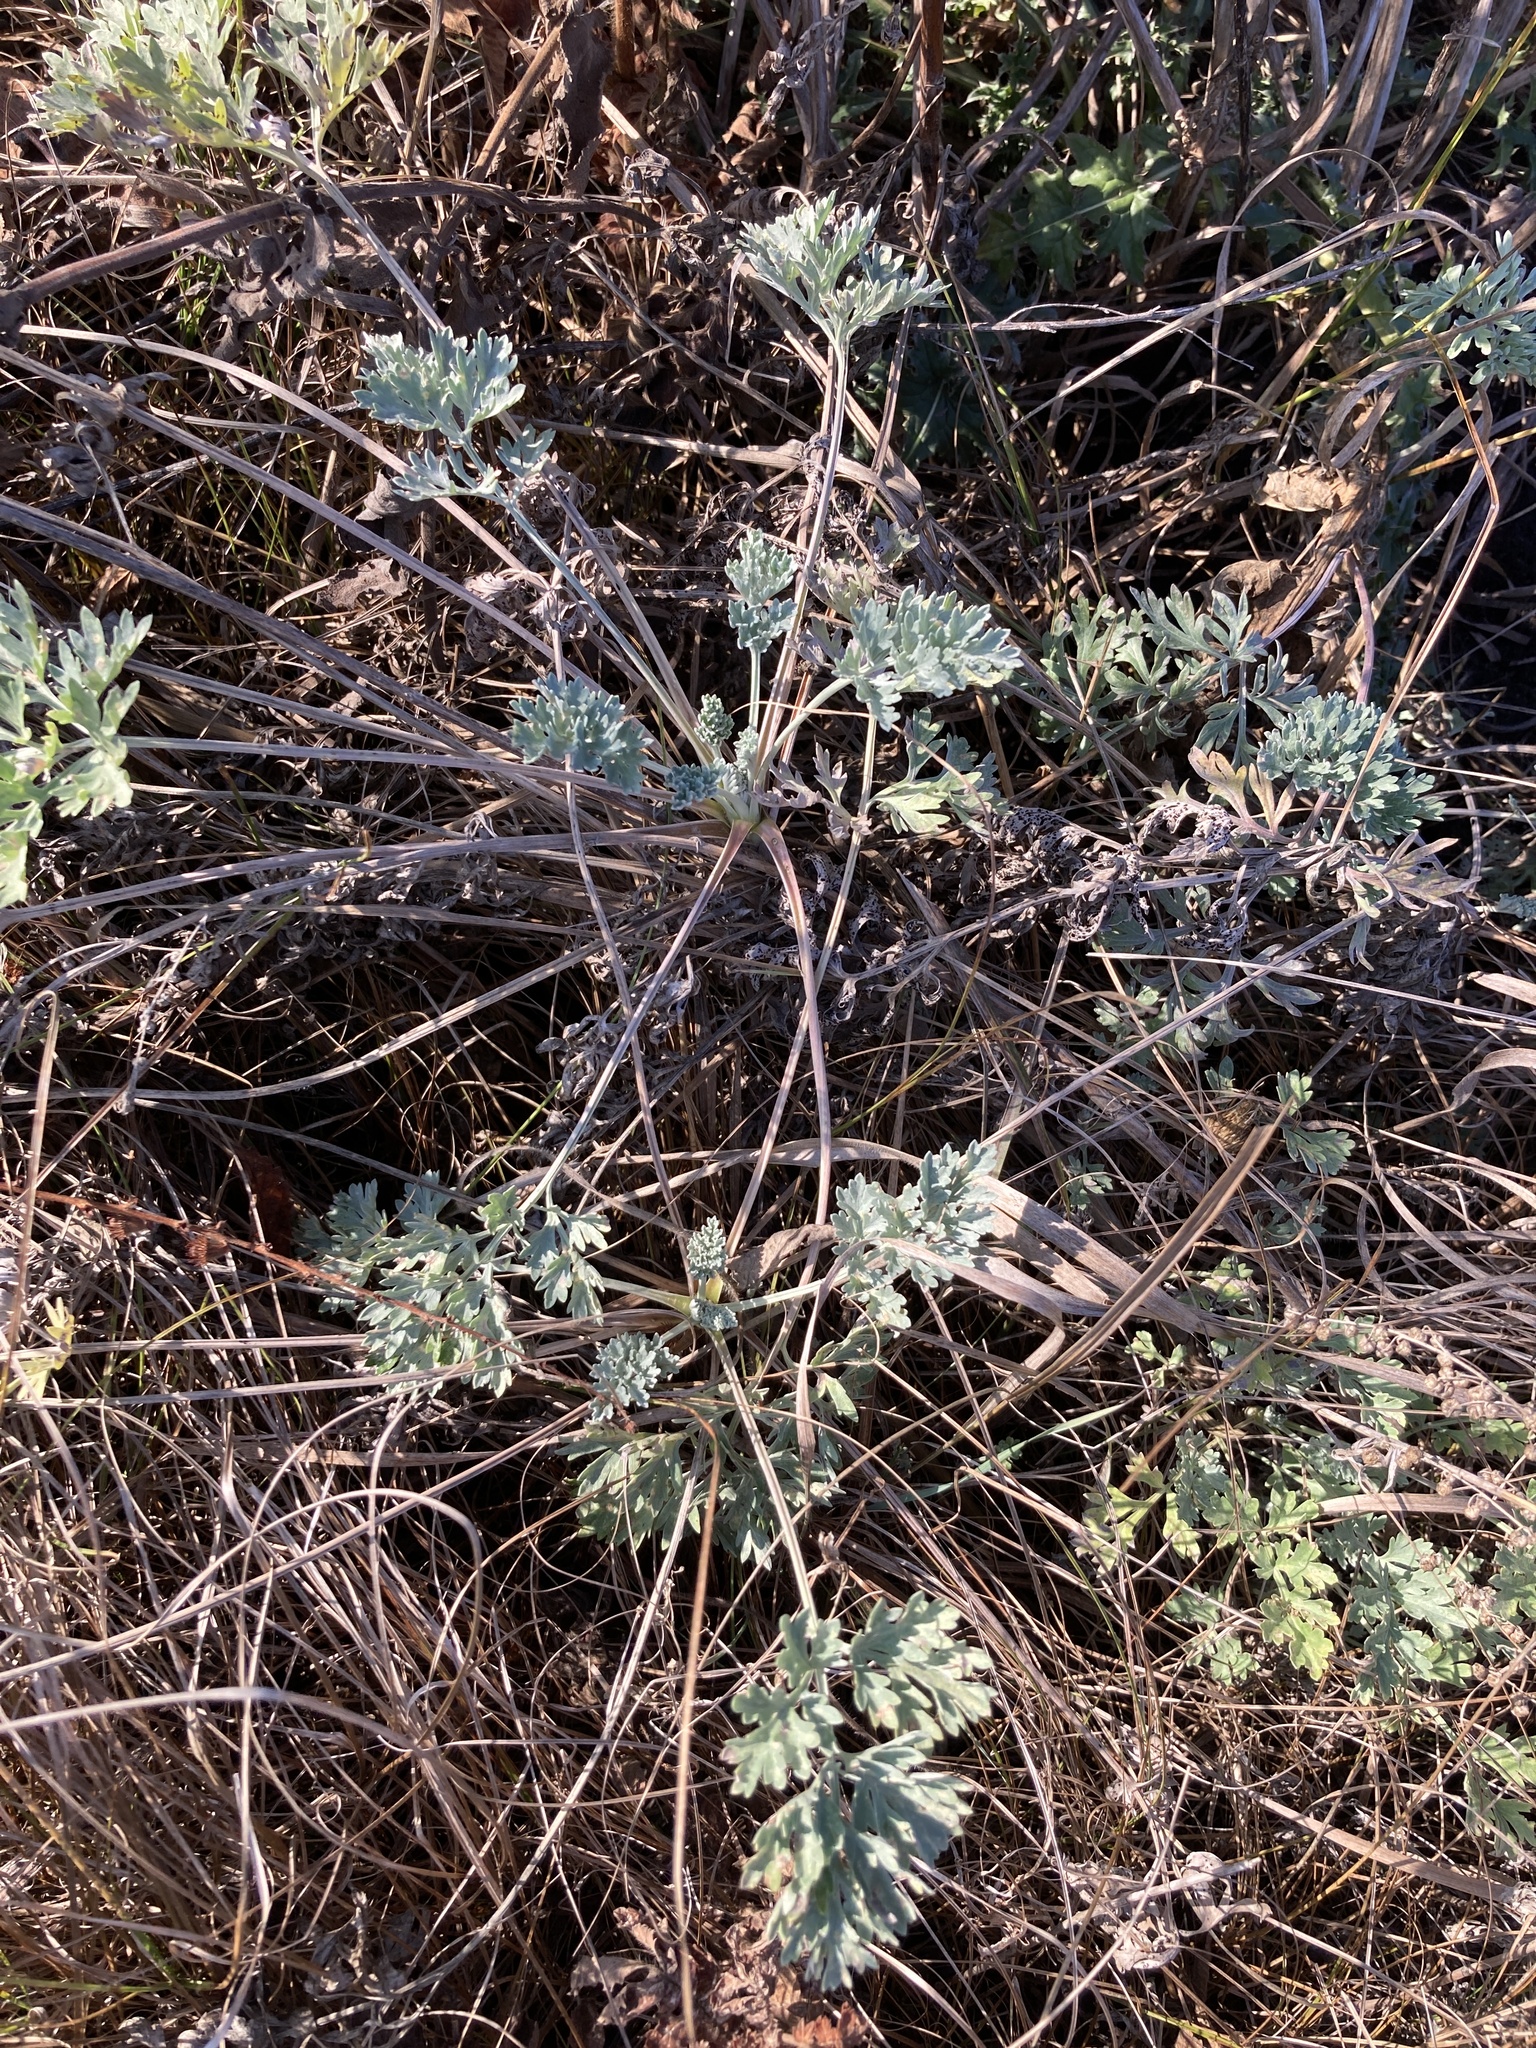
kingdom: Plantae
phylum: Tracheophyta
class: Magnoliopsida
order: Asterales
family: Asteraceae
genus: Artemisia
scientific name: Artemisia absinthium
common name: Wormwood
